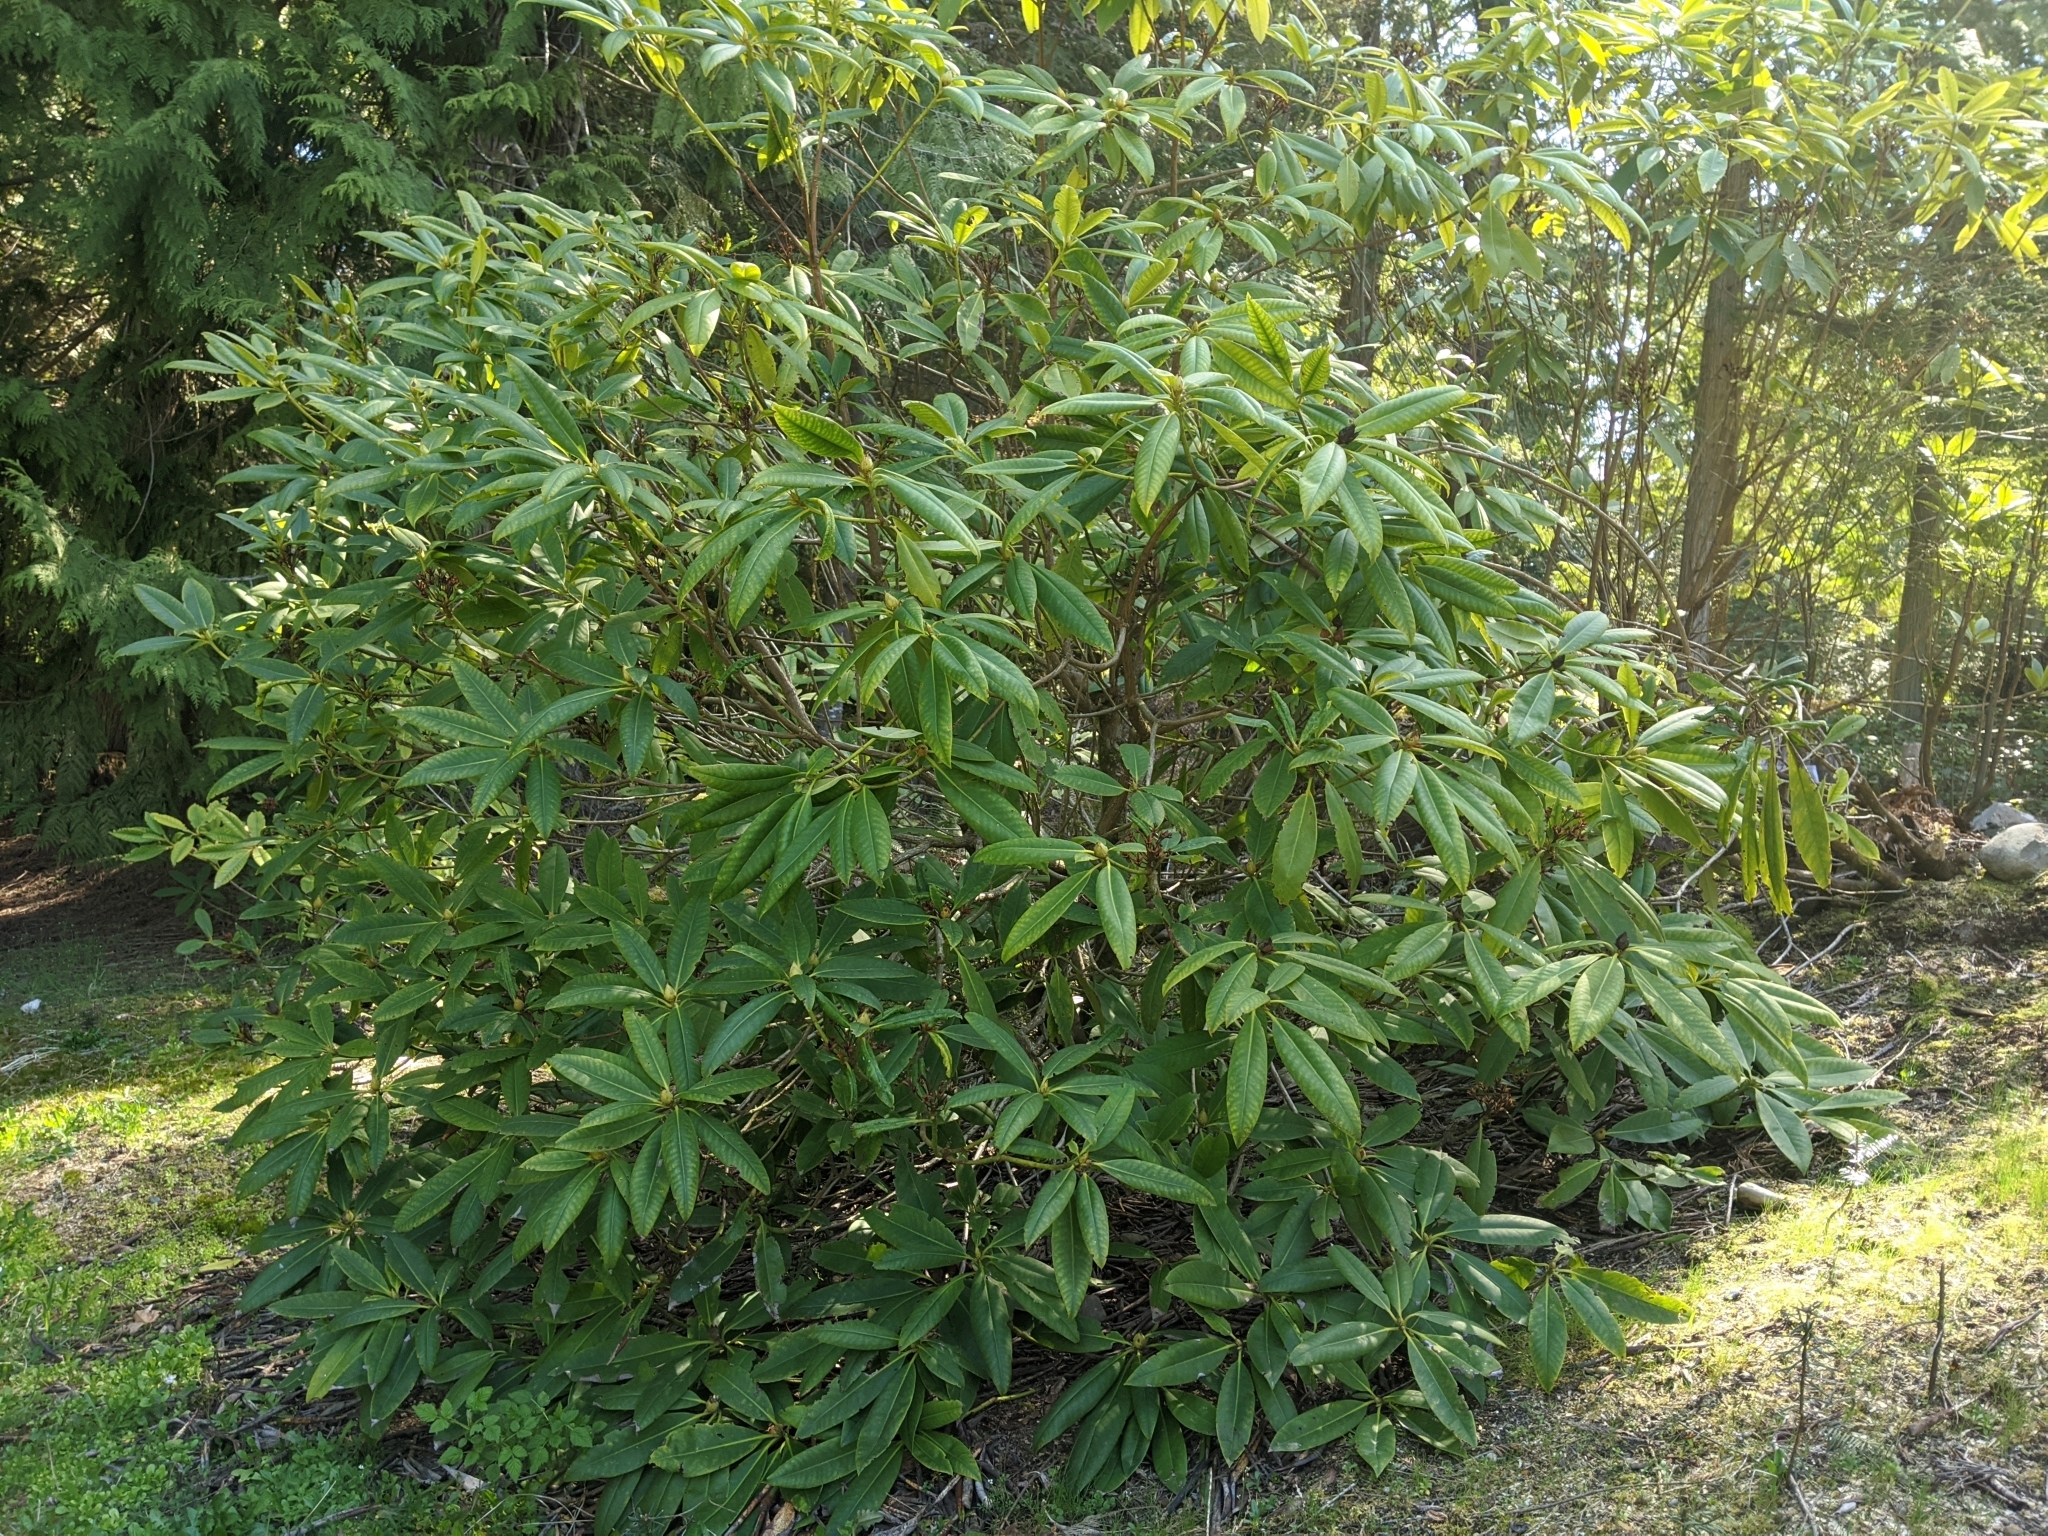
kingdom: Plantae
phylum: Tracheophyta
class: Magnoliopsida
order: Ericales
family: Ericaceae
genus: Rhododendron
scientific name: Rhododendron macrophyllum
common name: California rose bay
